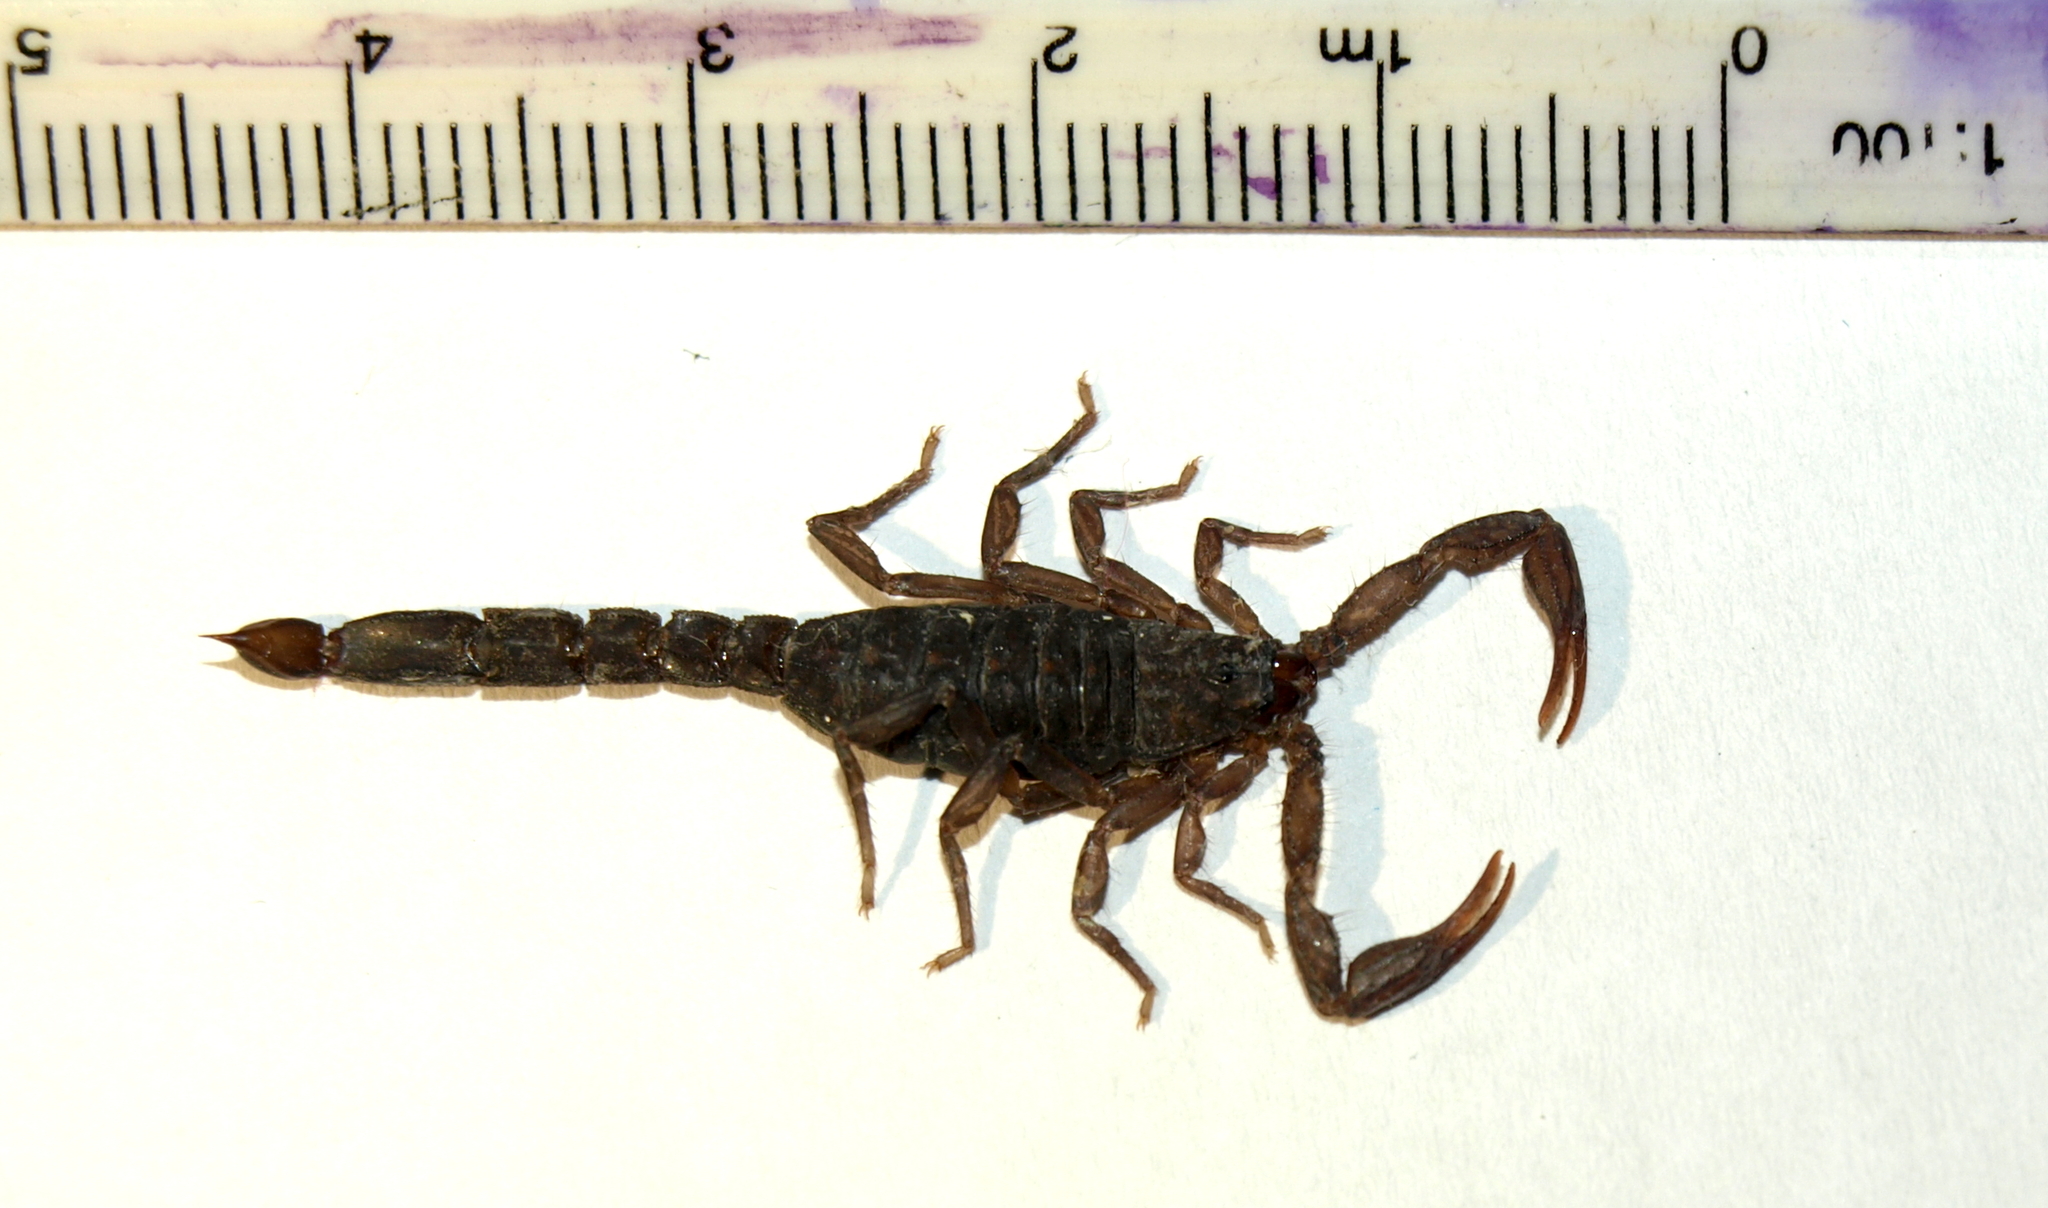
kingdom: Animalia
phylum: Arthropoda
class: Arachnida
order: Scorpiones
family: Vaejovidae
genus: Vaejovis
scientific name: Vaejovis mexicanus
